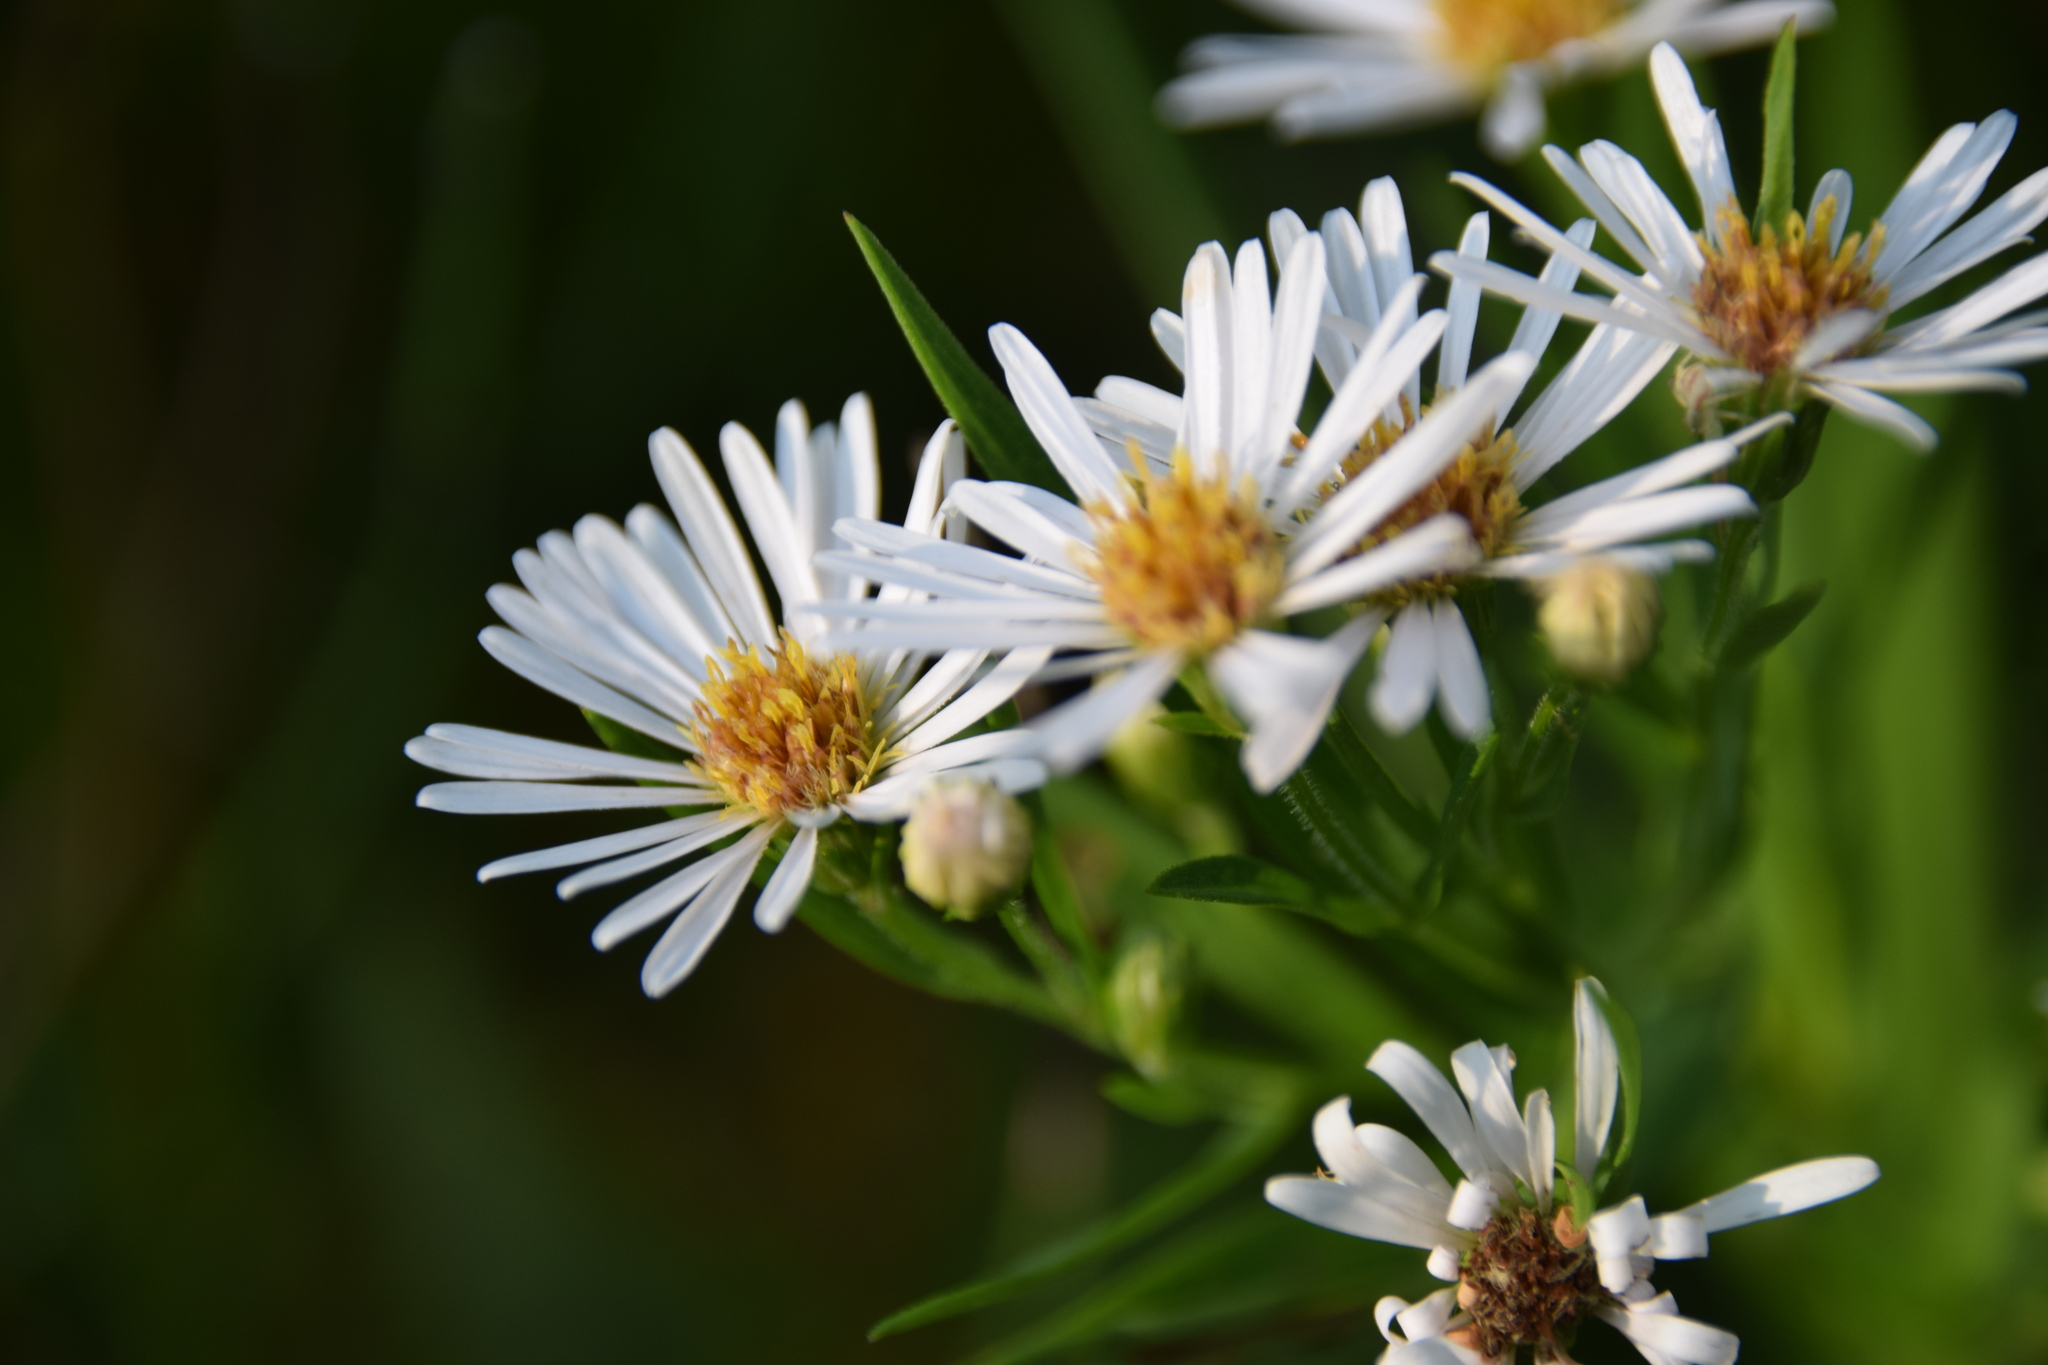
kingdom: Plantae
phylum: Tracheophyta
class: Magnoliopsida
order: Asterales
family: Asteraceae
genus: Symphyotrichum
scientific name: Symphyotrichum lanceolatum
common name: Panicled aster
